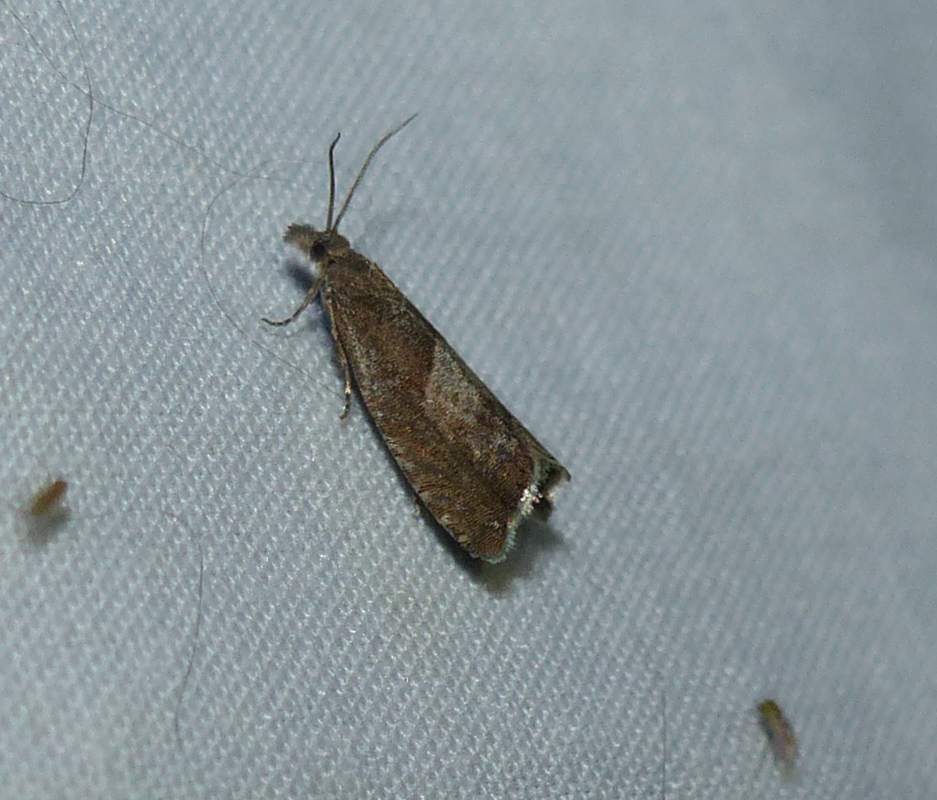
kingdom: Animalia
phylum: Arthropoda
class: Insecta
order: Lepidoptera
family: Tortricidae
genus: Dichrorampha
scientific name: Dichrorampha acuminatana
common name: Sharp-winged drill
